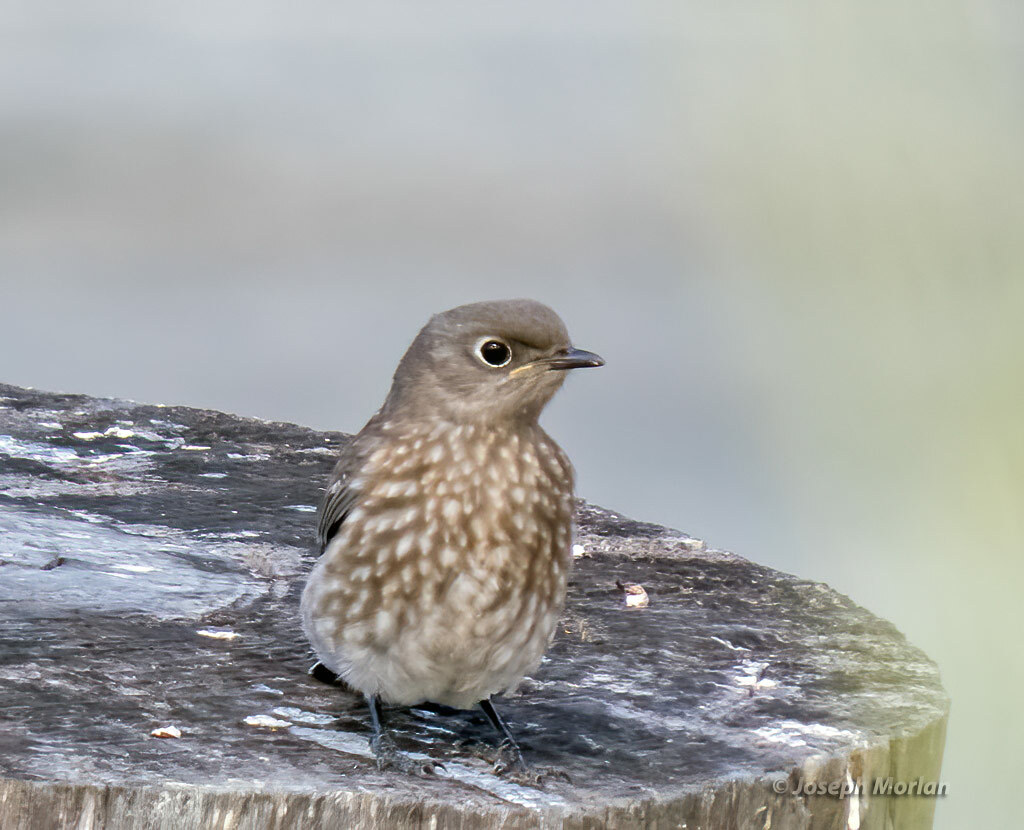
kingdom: Animalia
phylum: Chordata
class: Aves
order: Passeriformes
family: Turdidae
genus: Sialia
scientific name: Sialia mexicana
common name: Western bluebird
